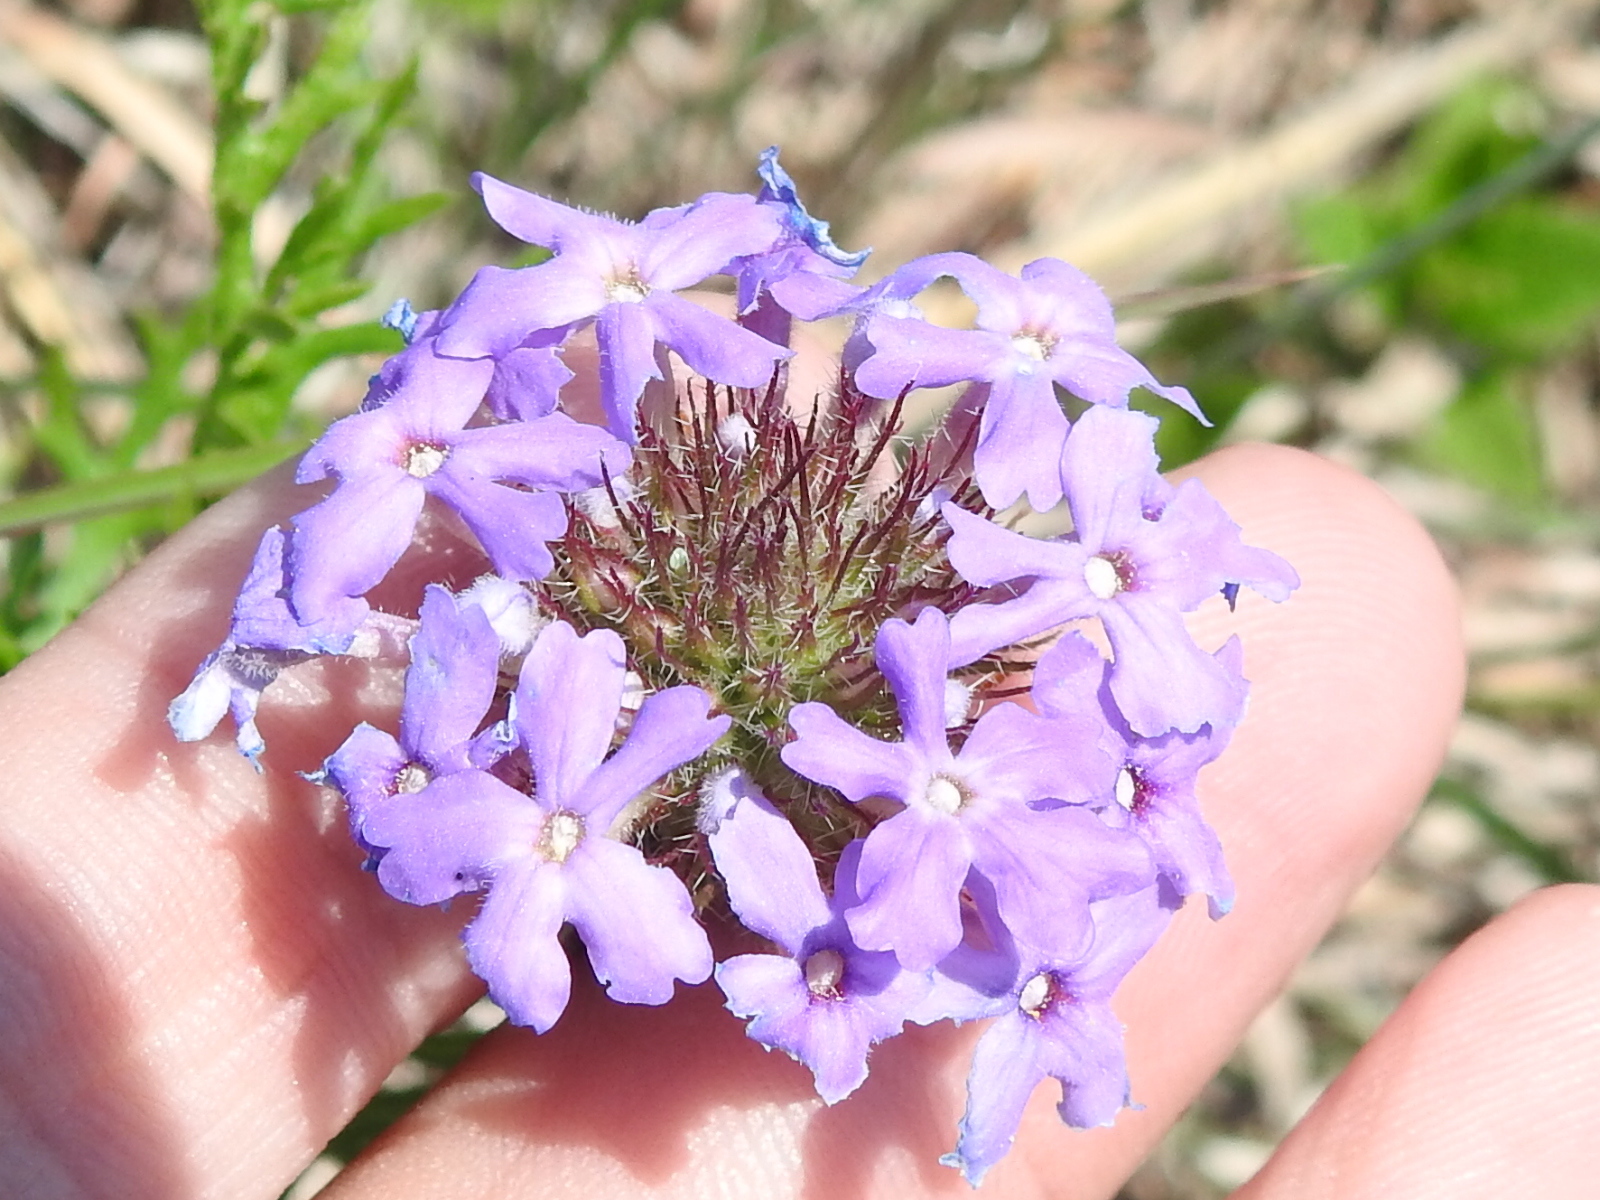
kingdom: Plantae
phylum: Tracheophyta
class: Magnoliopsida
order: Lamiales
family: Verbenaceae
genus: Verbena
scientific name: Verbena bipinnatifida
